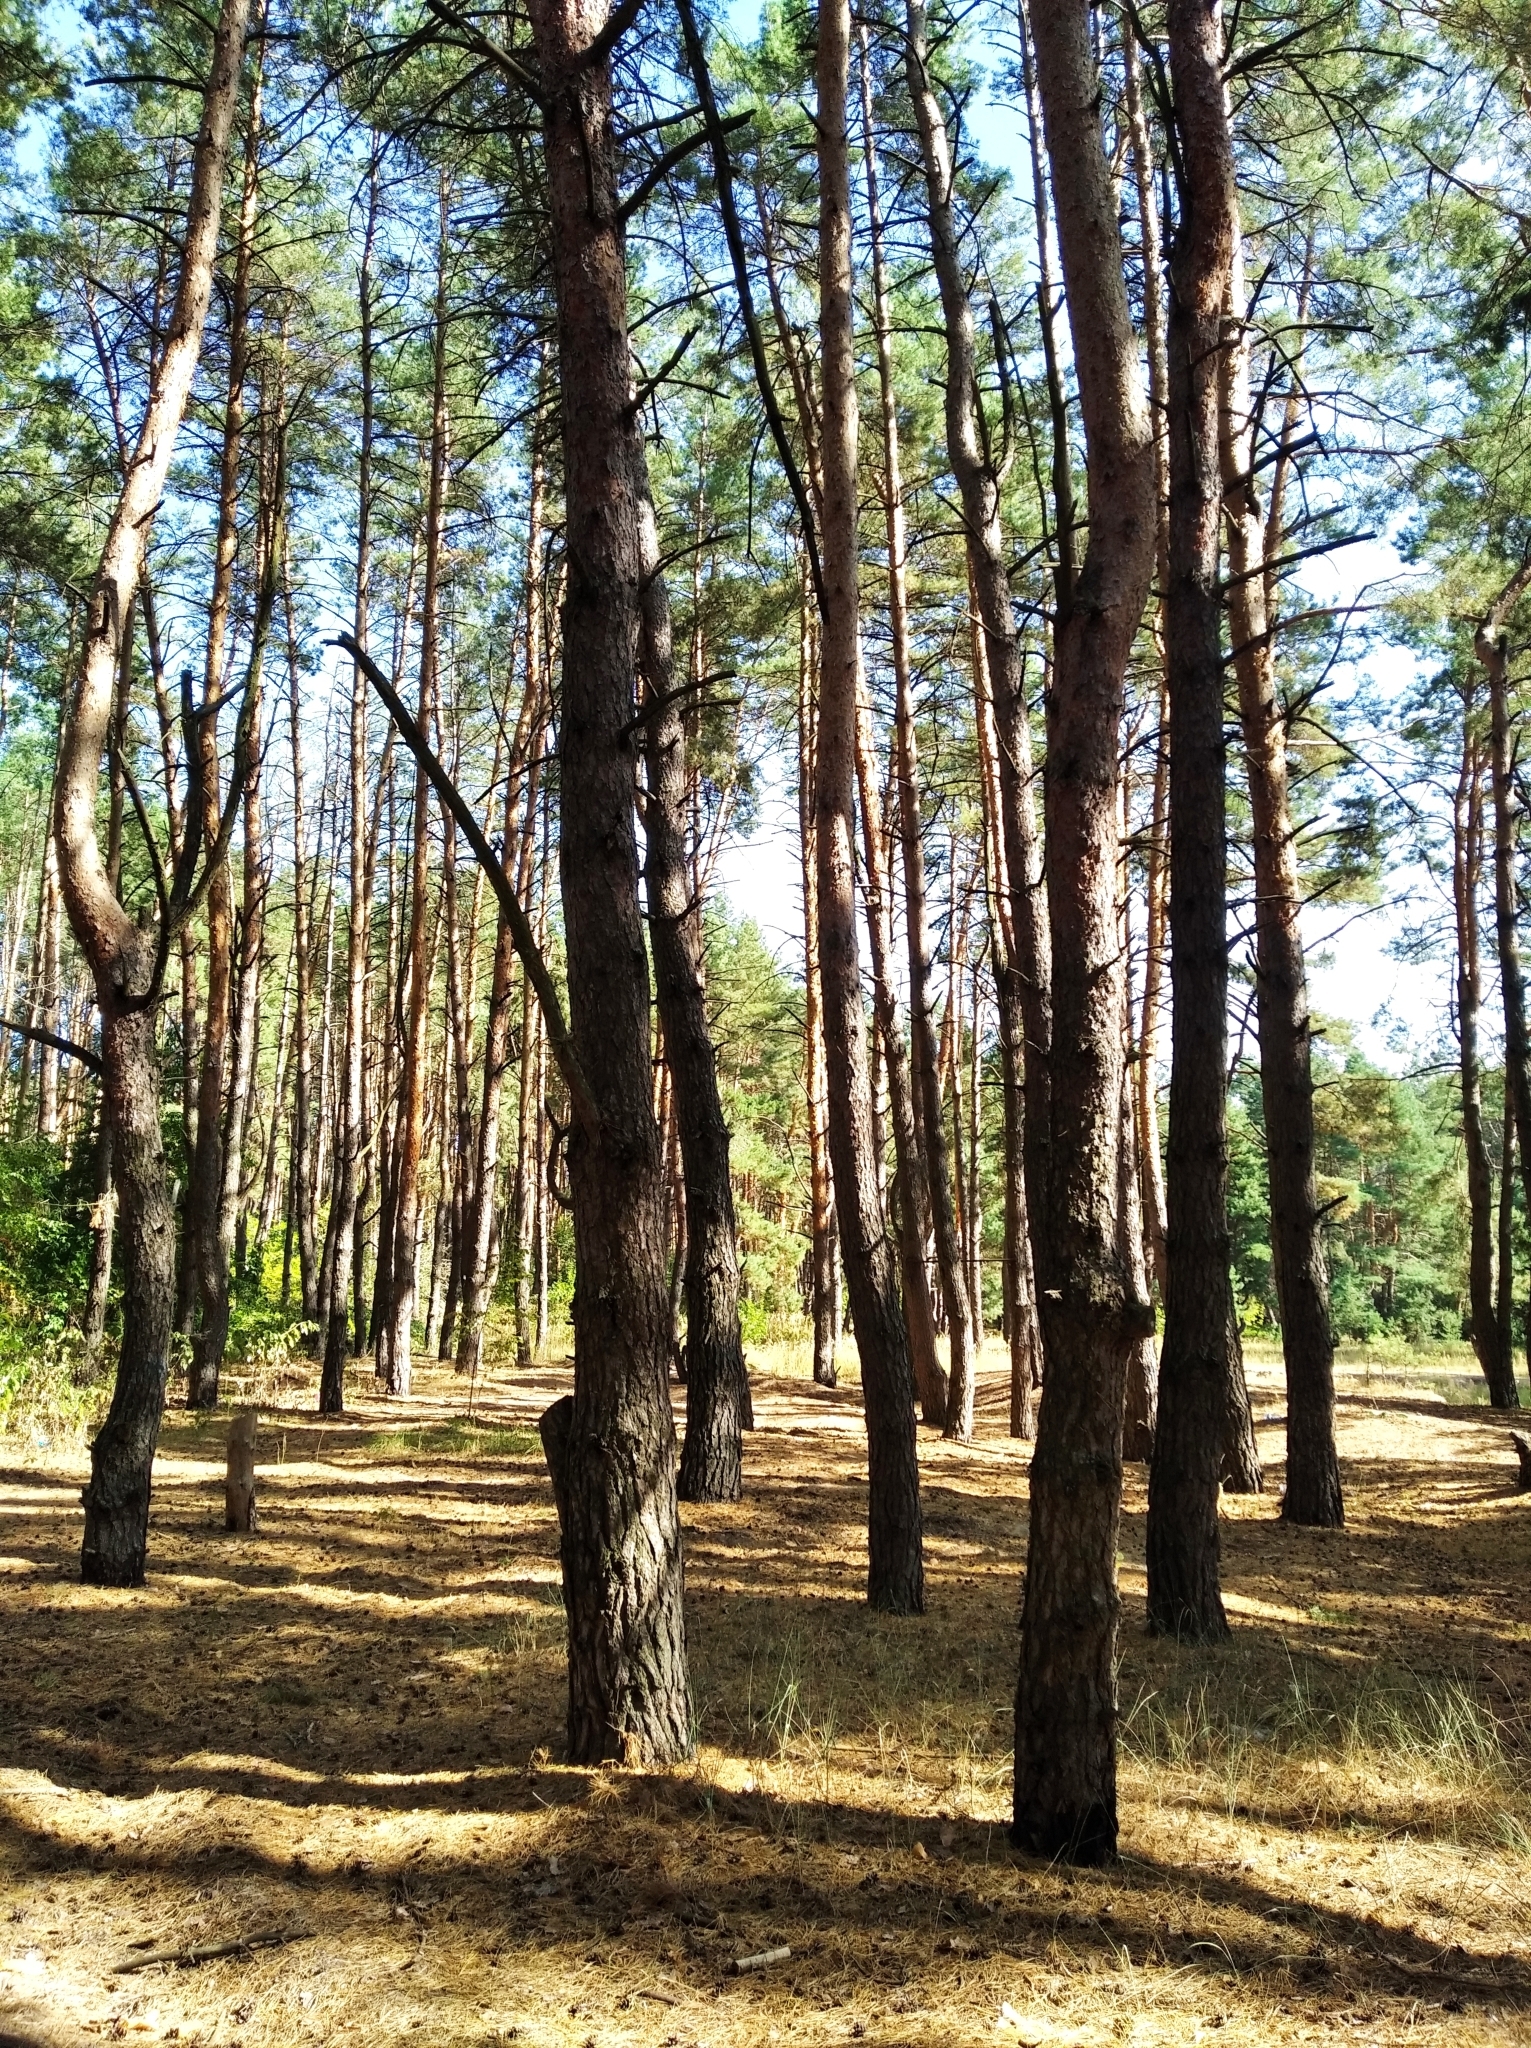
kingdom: Plantae
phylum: Tracheophyta
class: Pinopsida
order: Pinales
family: Pinaceae
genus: Pinus
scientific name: Pinus sylvestris
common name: Scots pine
